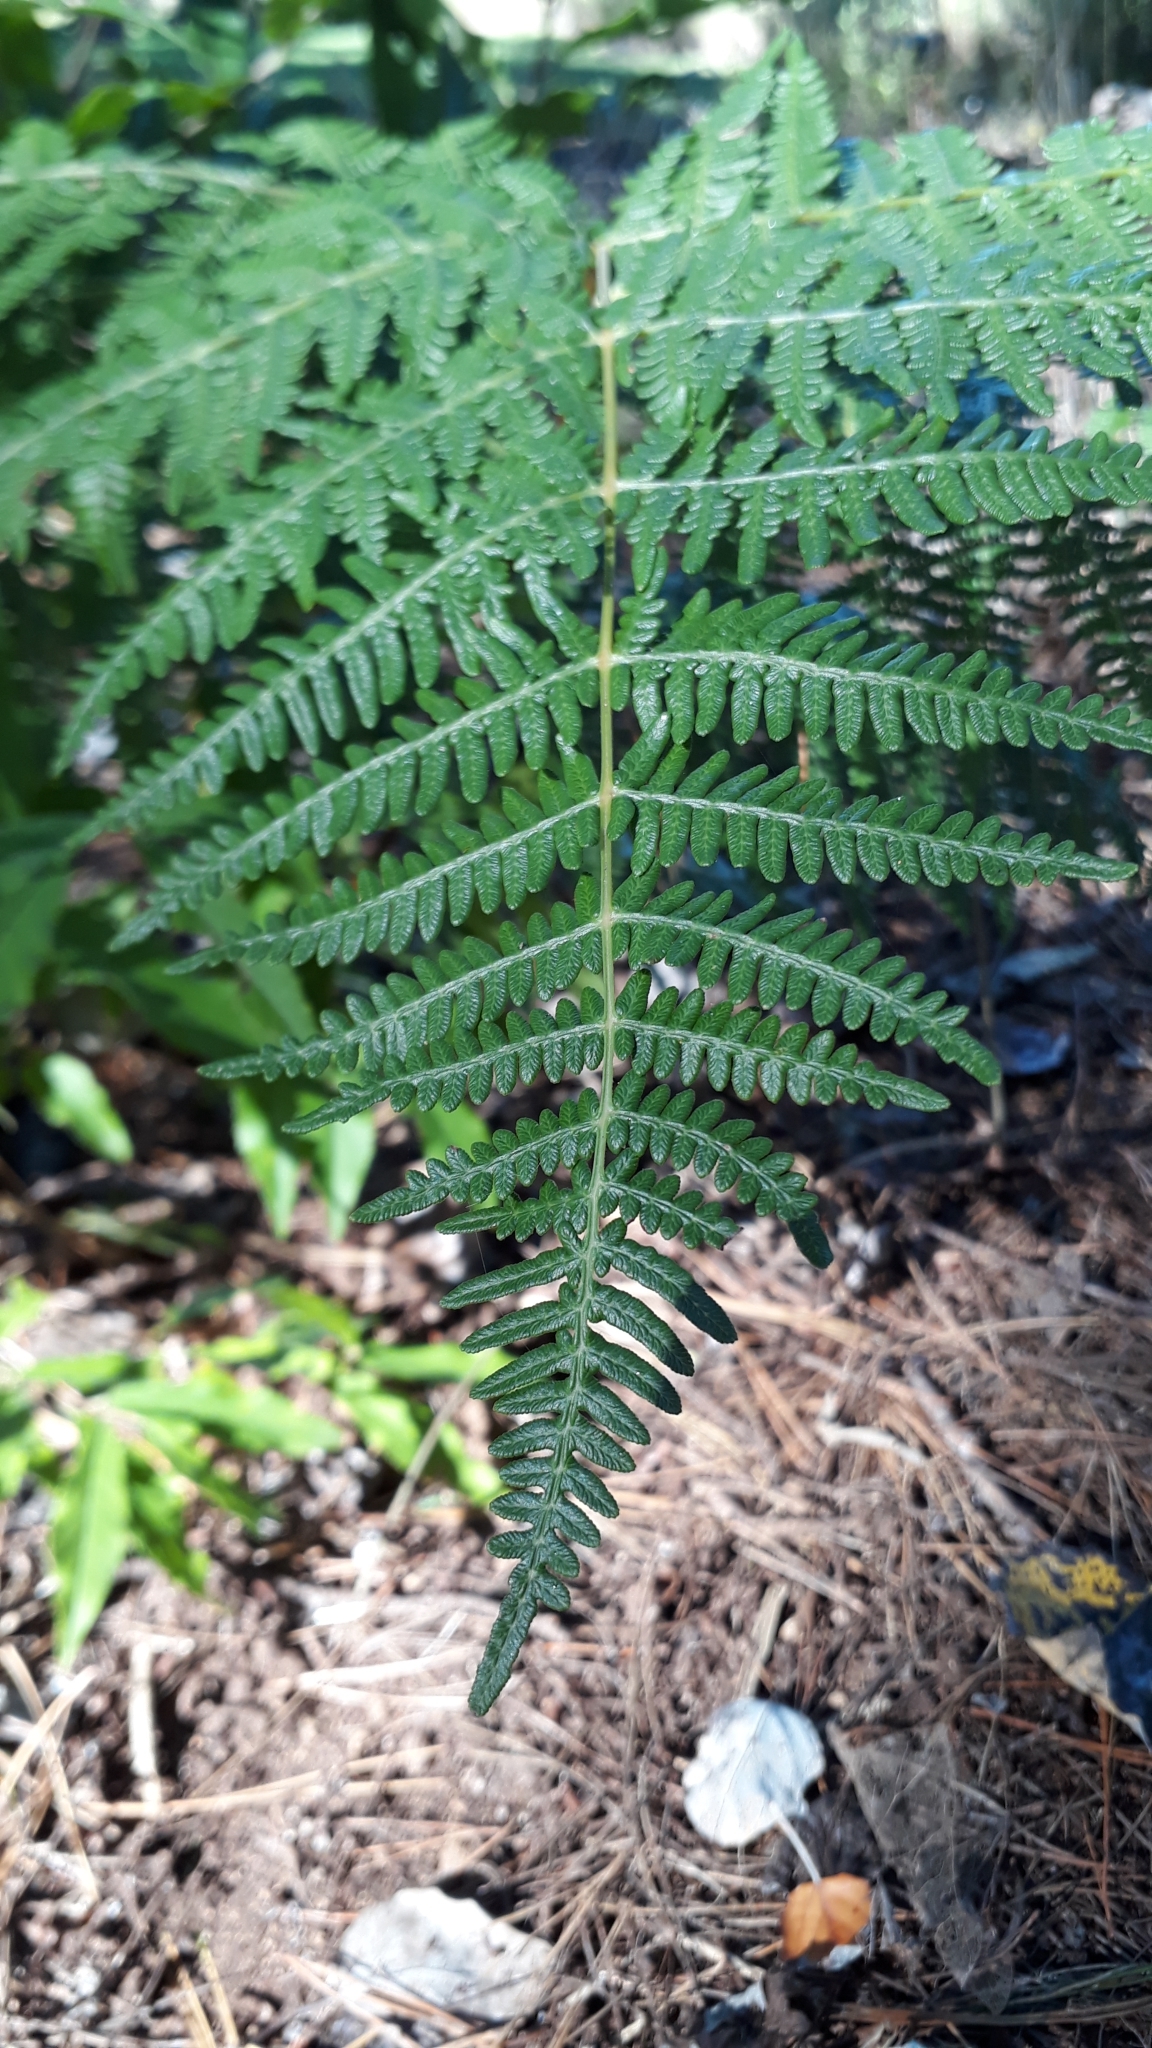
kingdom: Plantae
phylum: Tracheophyta
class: Polypodiopsida
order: Polypodiales
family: Dennstaedtiaceae
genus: Pteridium
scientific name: Pteridium aquilinum
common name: Bracken
